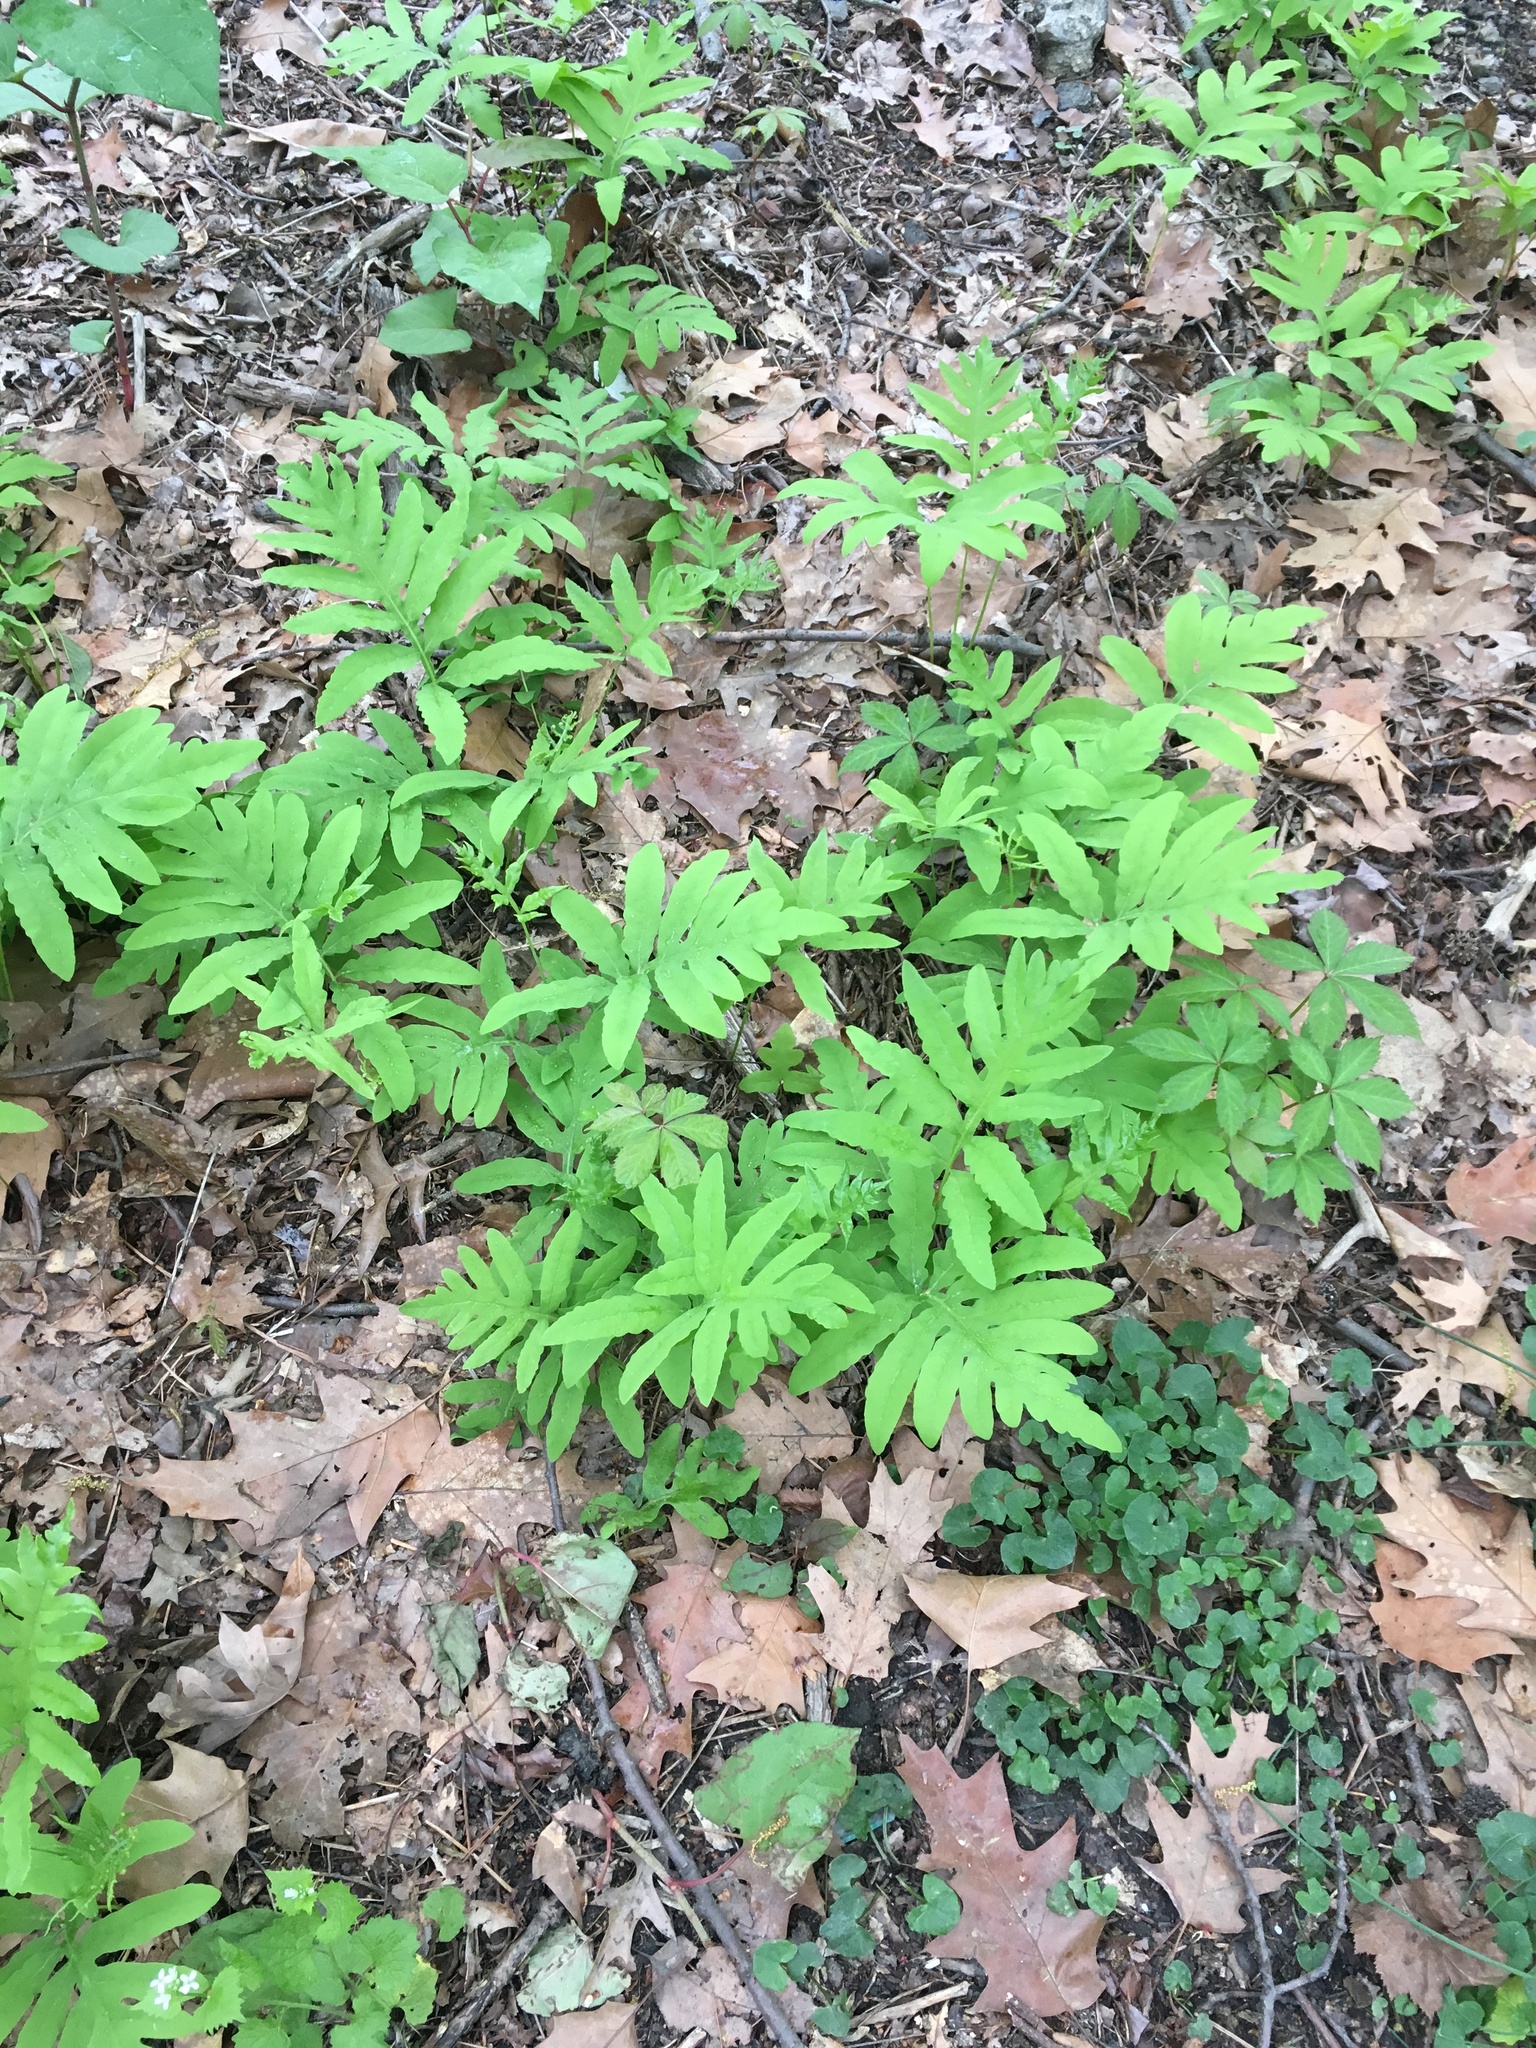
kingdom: Plantae
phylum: Tracheophyta
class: Polypodiopsida
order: Polypodiales
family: Onocleaceae
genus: Onoclea
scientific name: Onoclea sensibilis
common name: Sensitive fern
